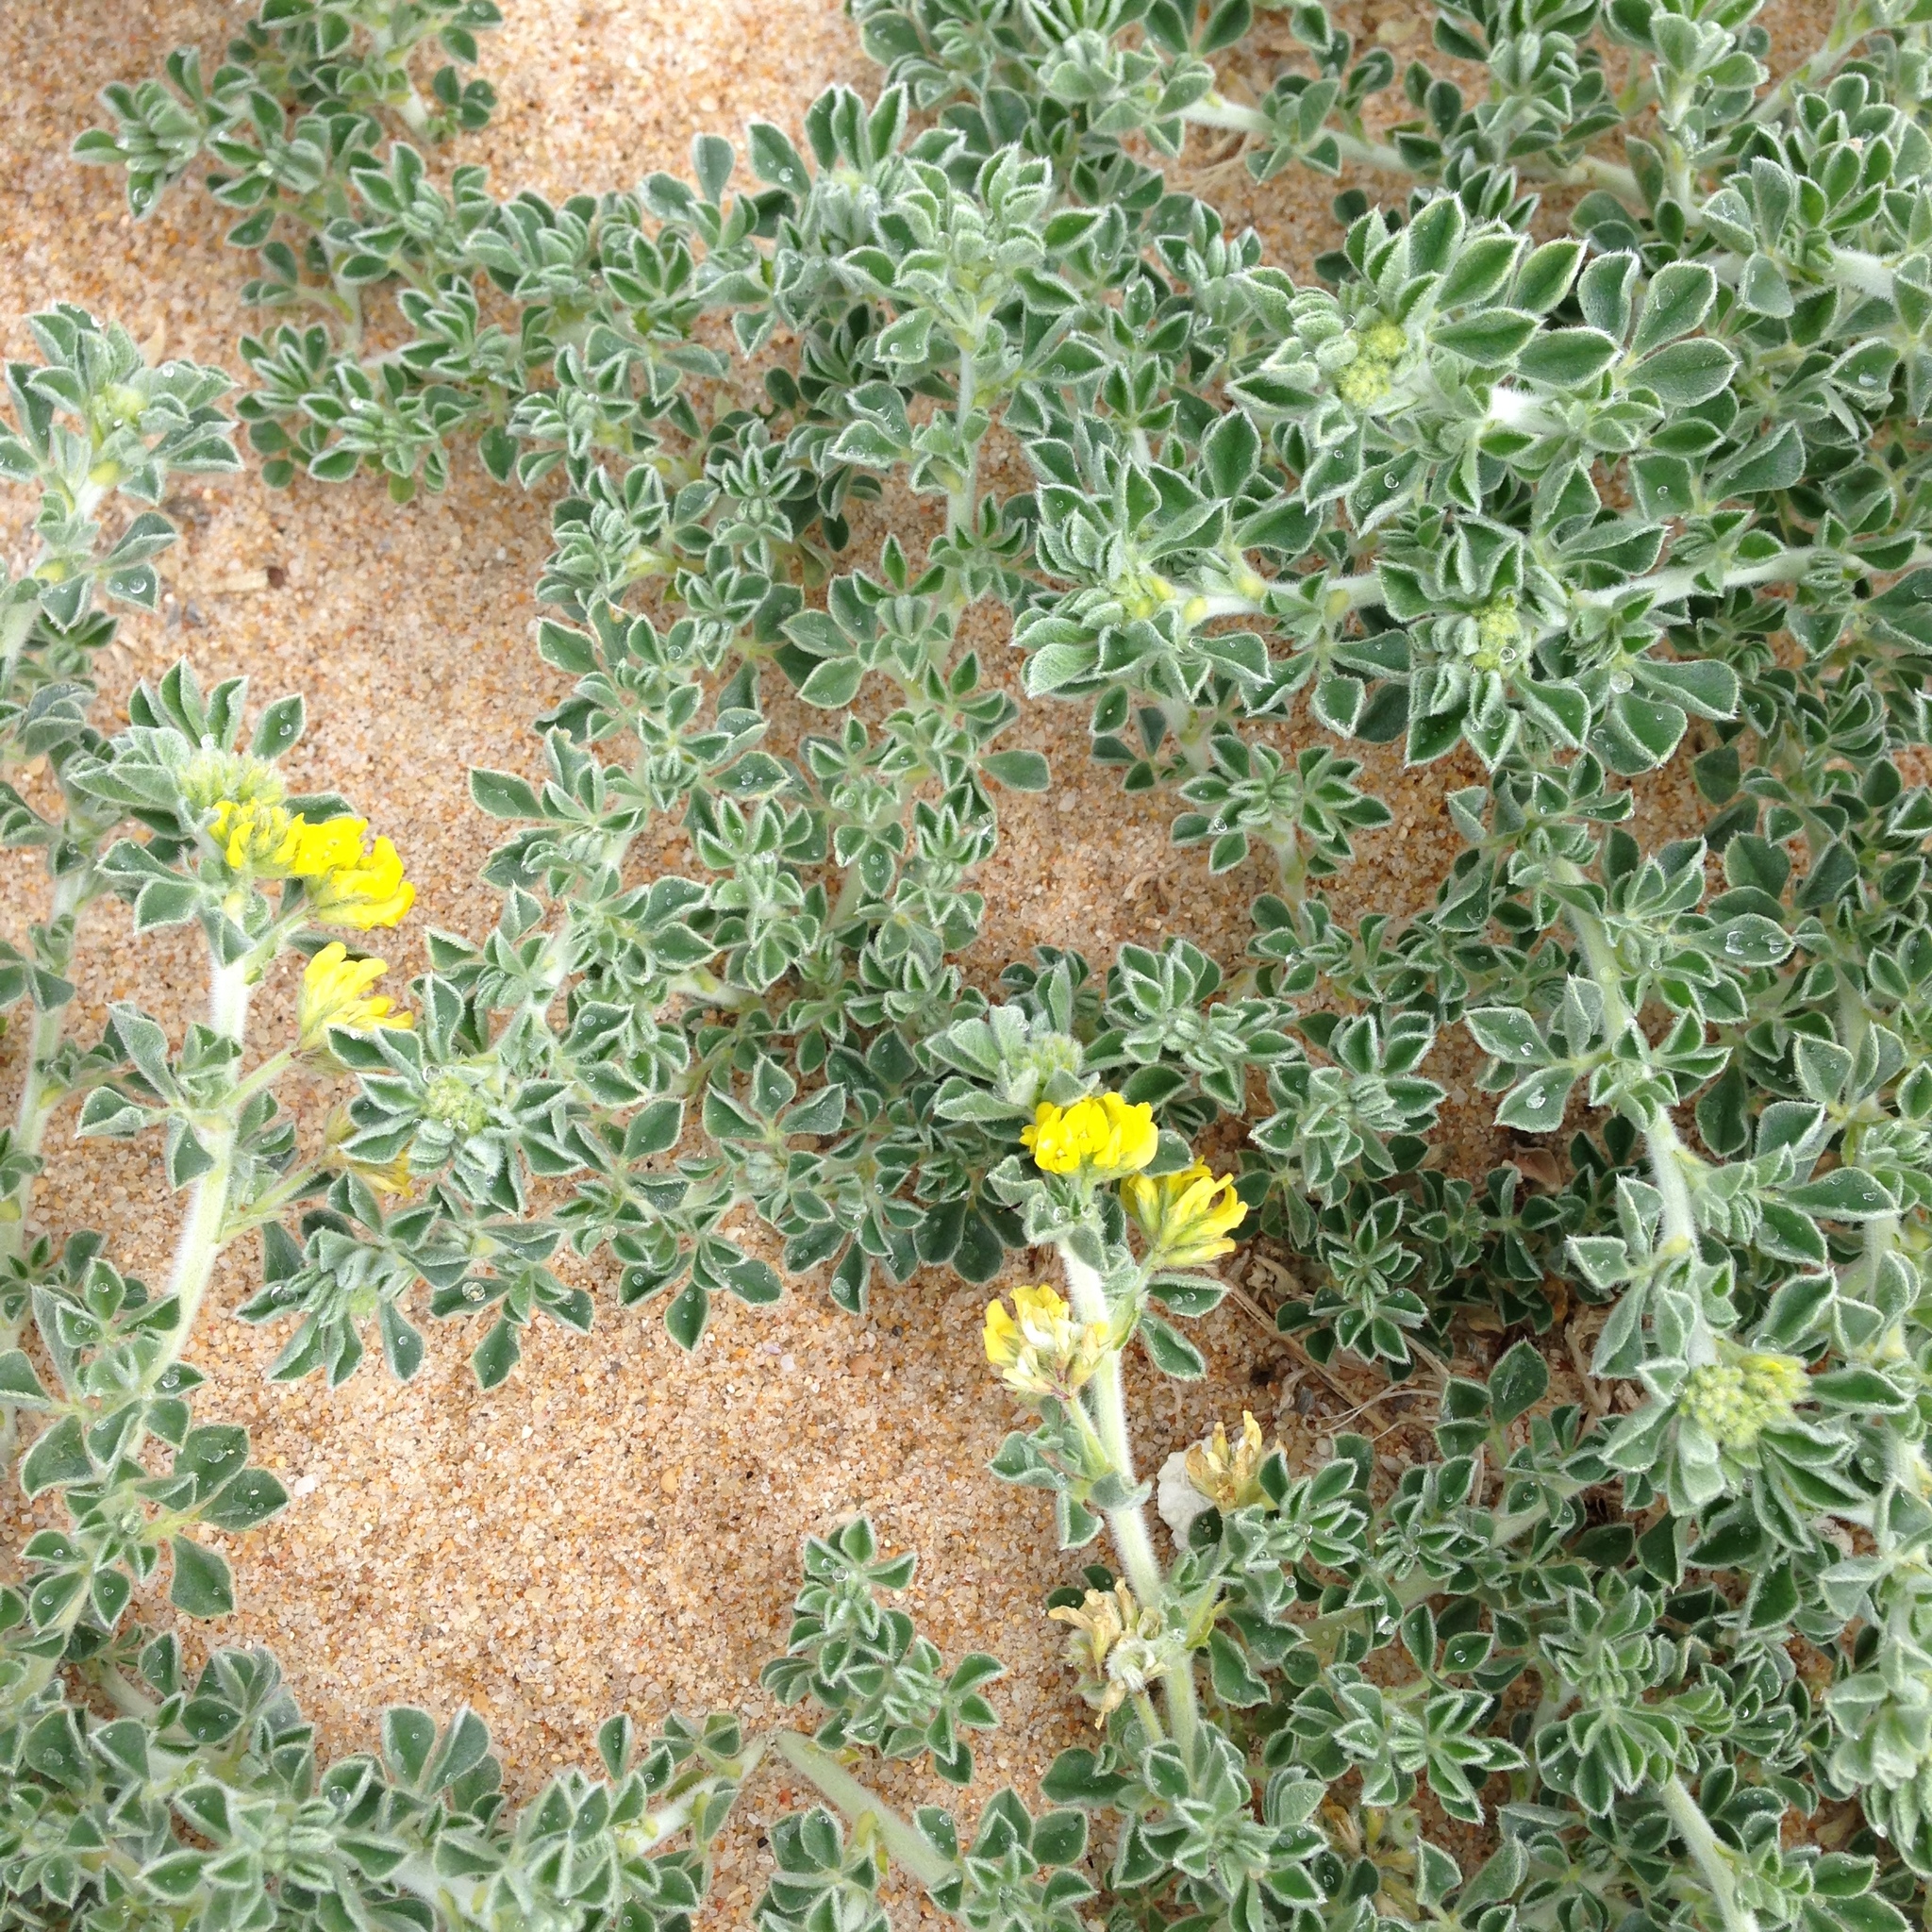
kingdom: Plantae
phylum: Tracheophyta
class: Magnoliopsida
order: Fabales
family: Fabaceae
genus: Medicago
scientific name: Medicago marina
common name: Sea medick
